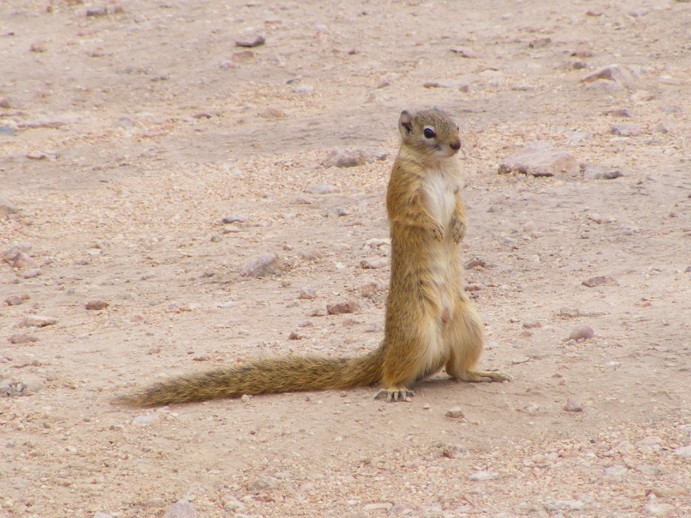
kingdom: Animalia
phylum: Chordata
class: Mammalia
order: Rodentia
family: Sciuridae
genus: Paraxerus
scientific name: Paraxerus cepapi
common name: Smith's bush squirrel
